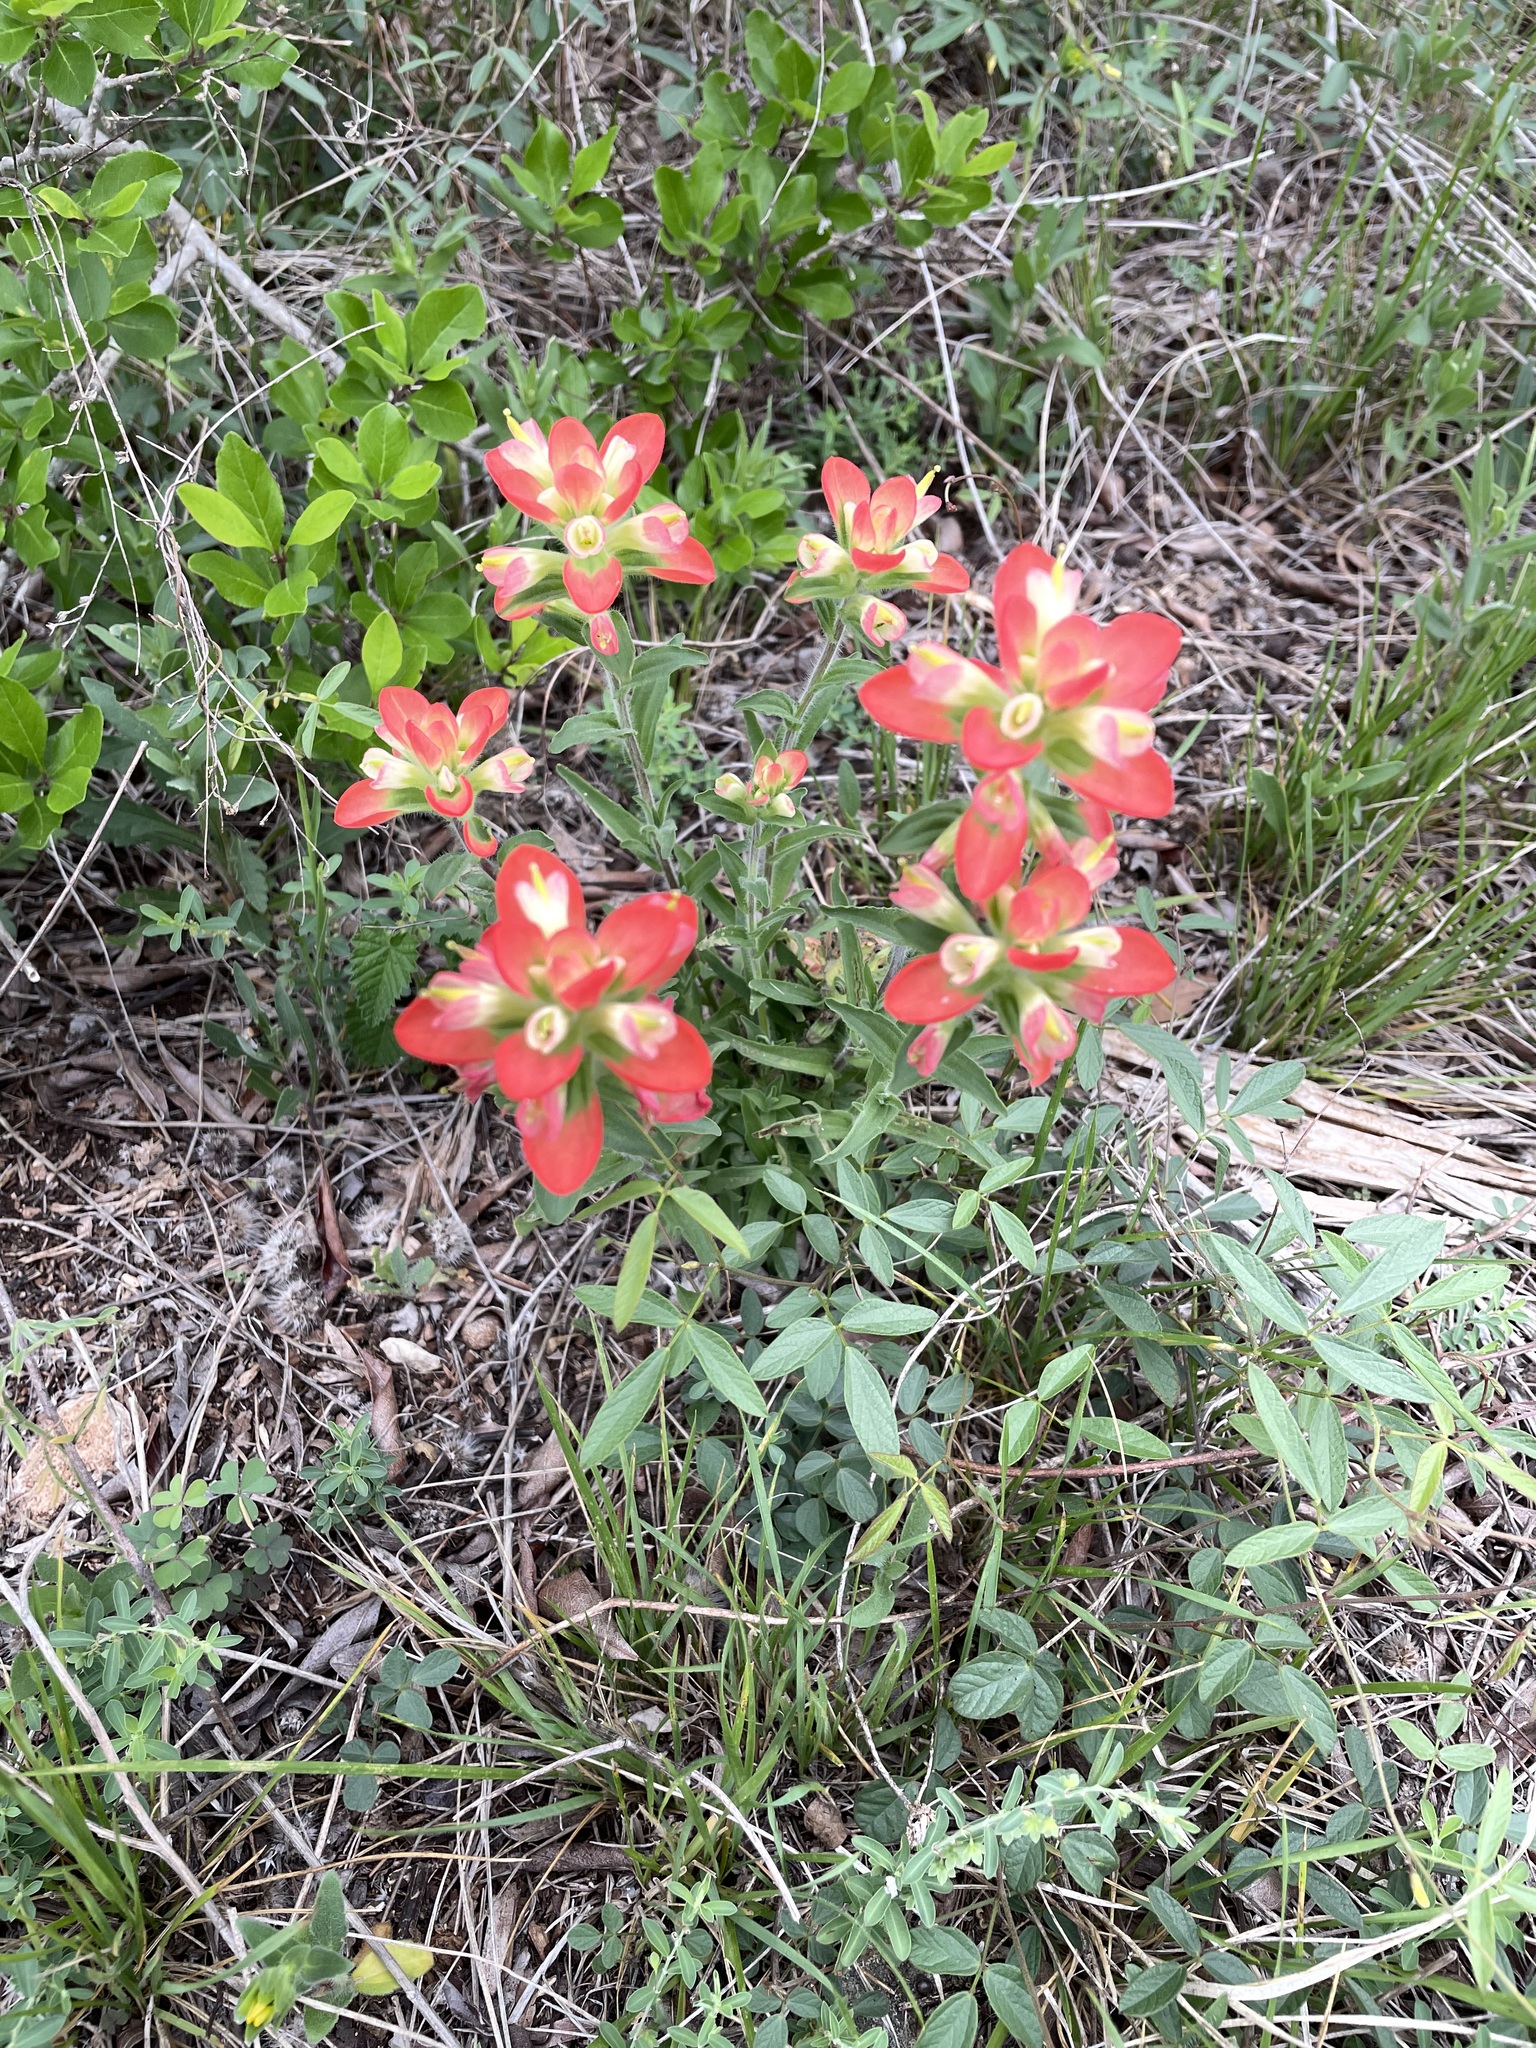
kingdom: Plantae
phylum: Tracheophyta
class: Magnoliopsida
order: Lamiales
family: Orobanchaceae
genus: Castilleja
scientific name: Castilleja indivisa
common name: Texas paintbrush
